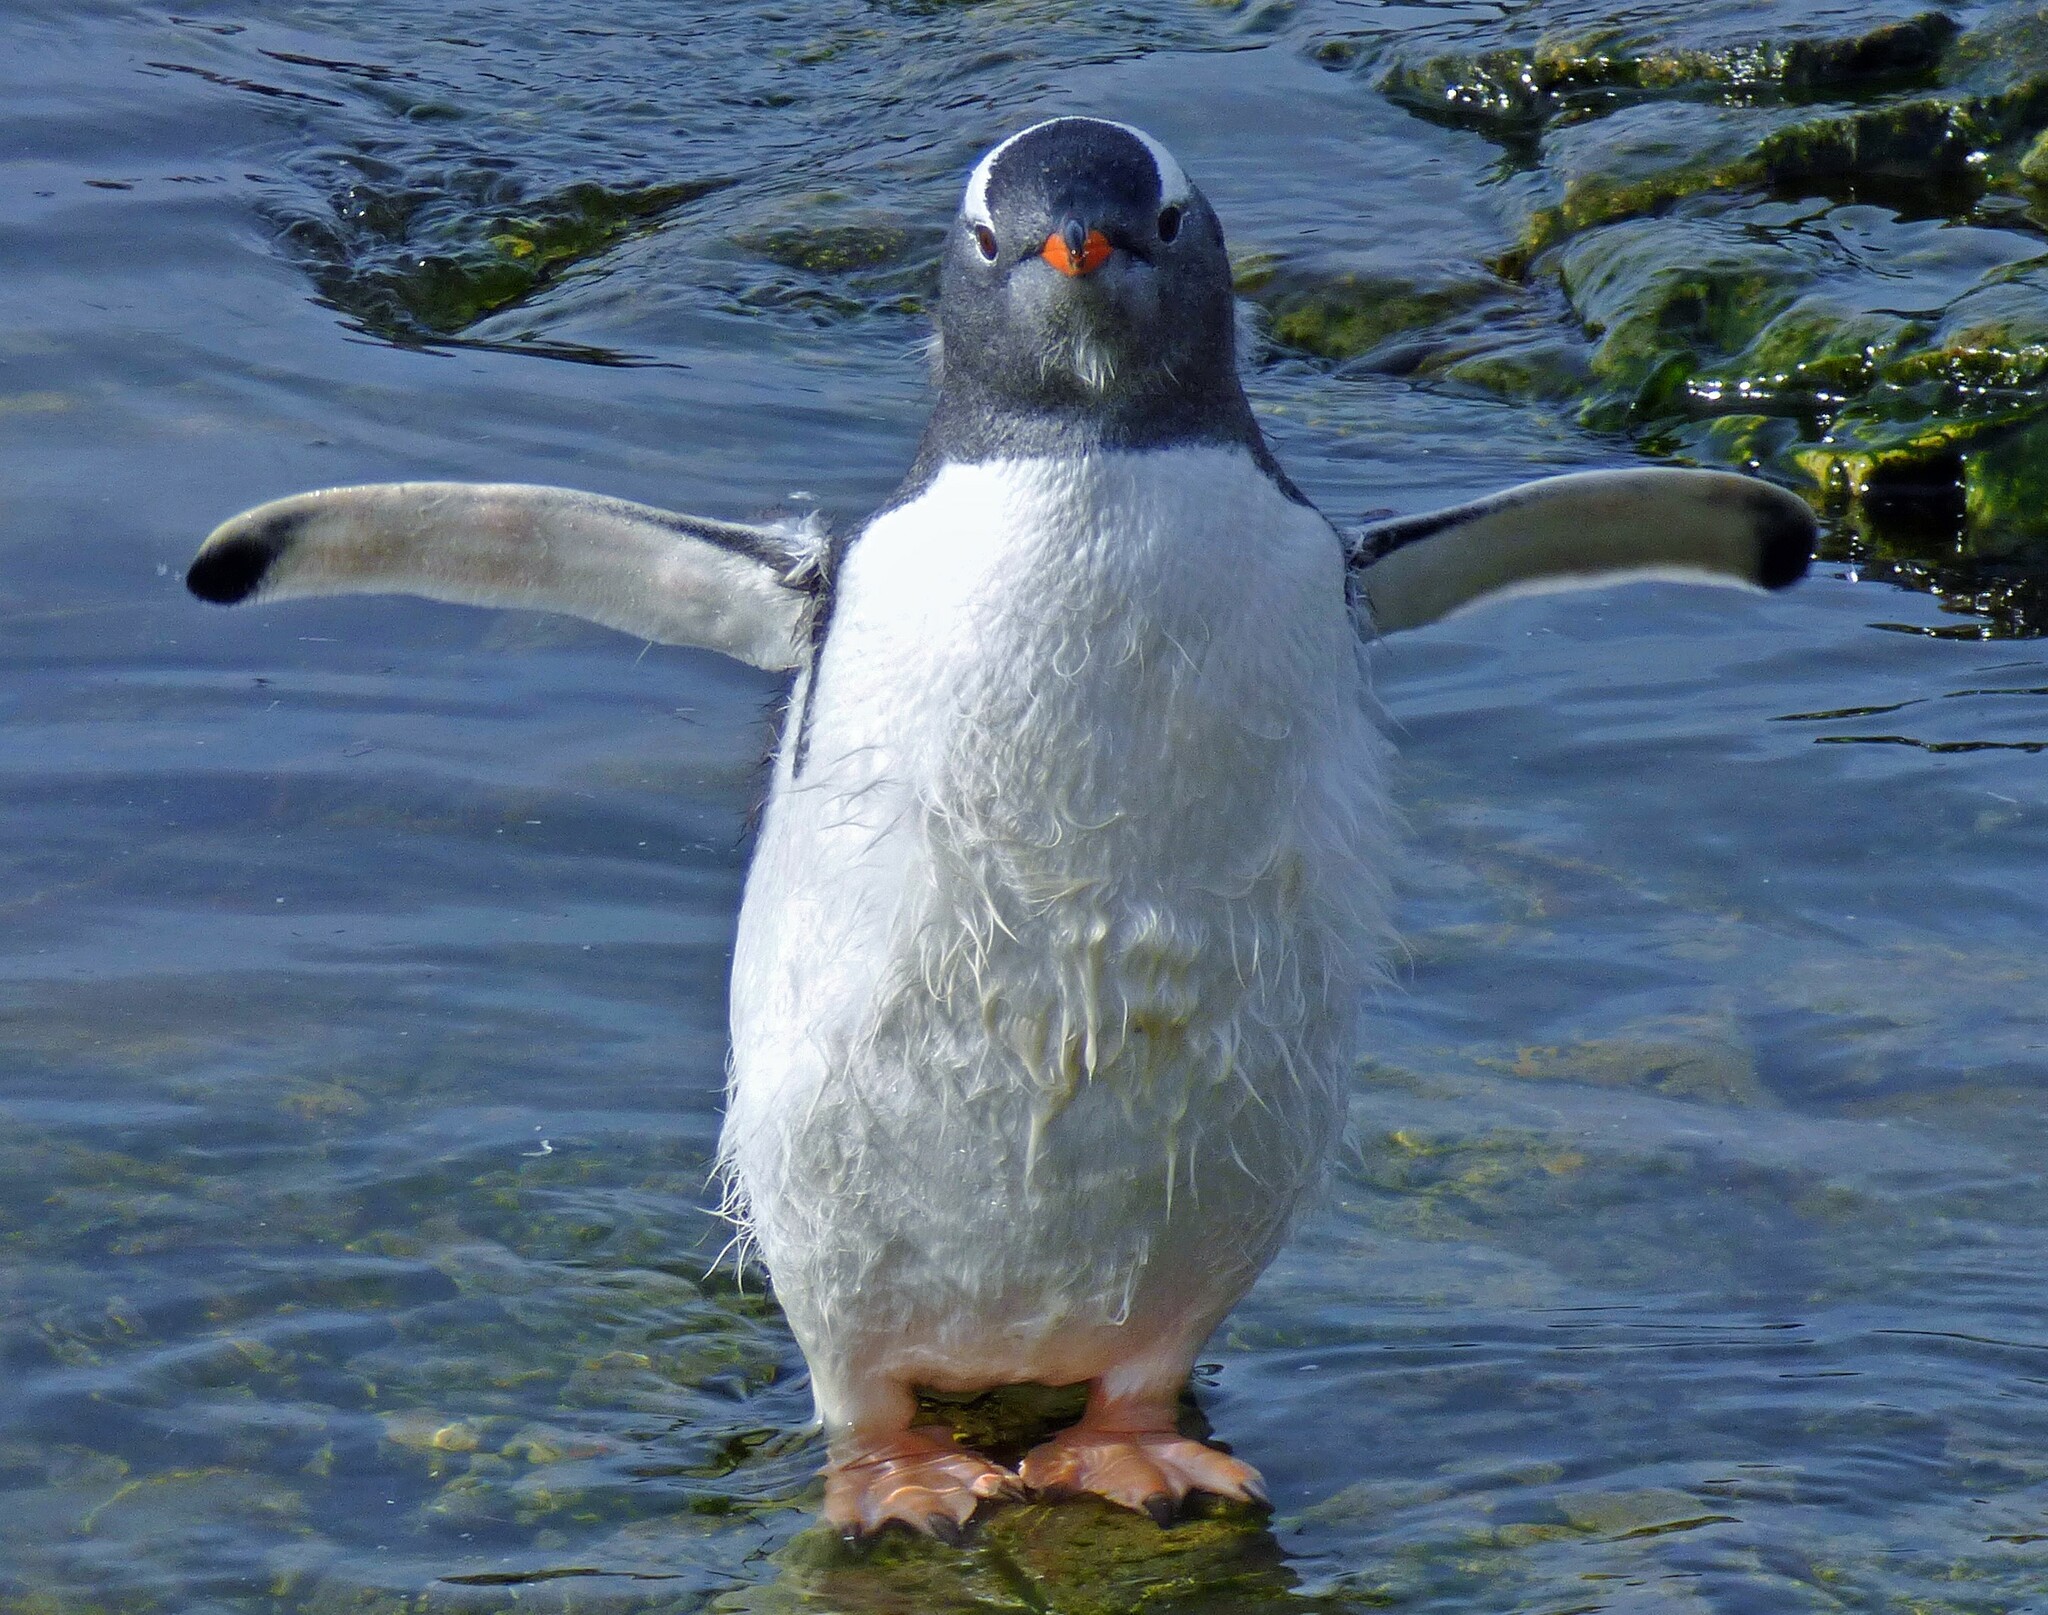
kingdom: Animalia
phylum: Chordata
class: Aves
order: Sphenisciformes
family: Spheniscidae
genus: Pygoscelis
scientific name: Pygoscelis papua
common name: Gentoo penguin
